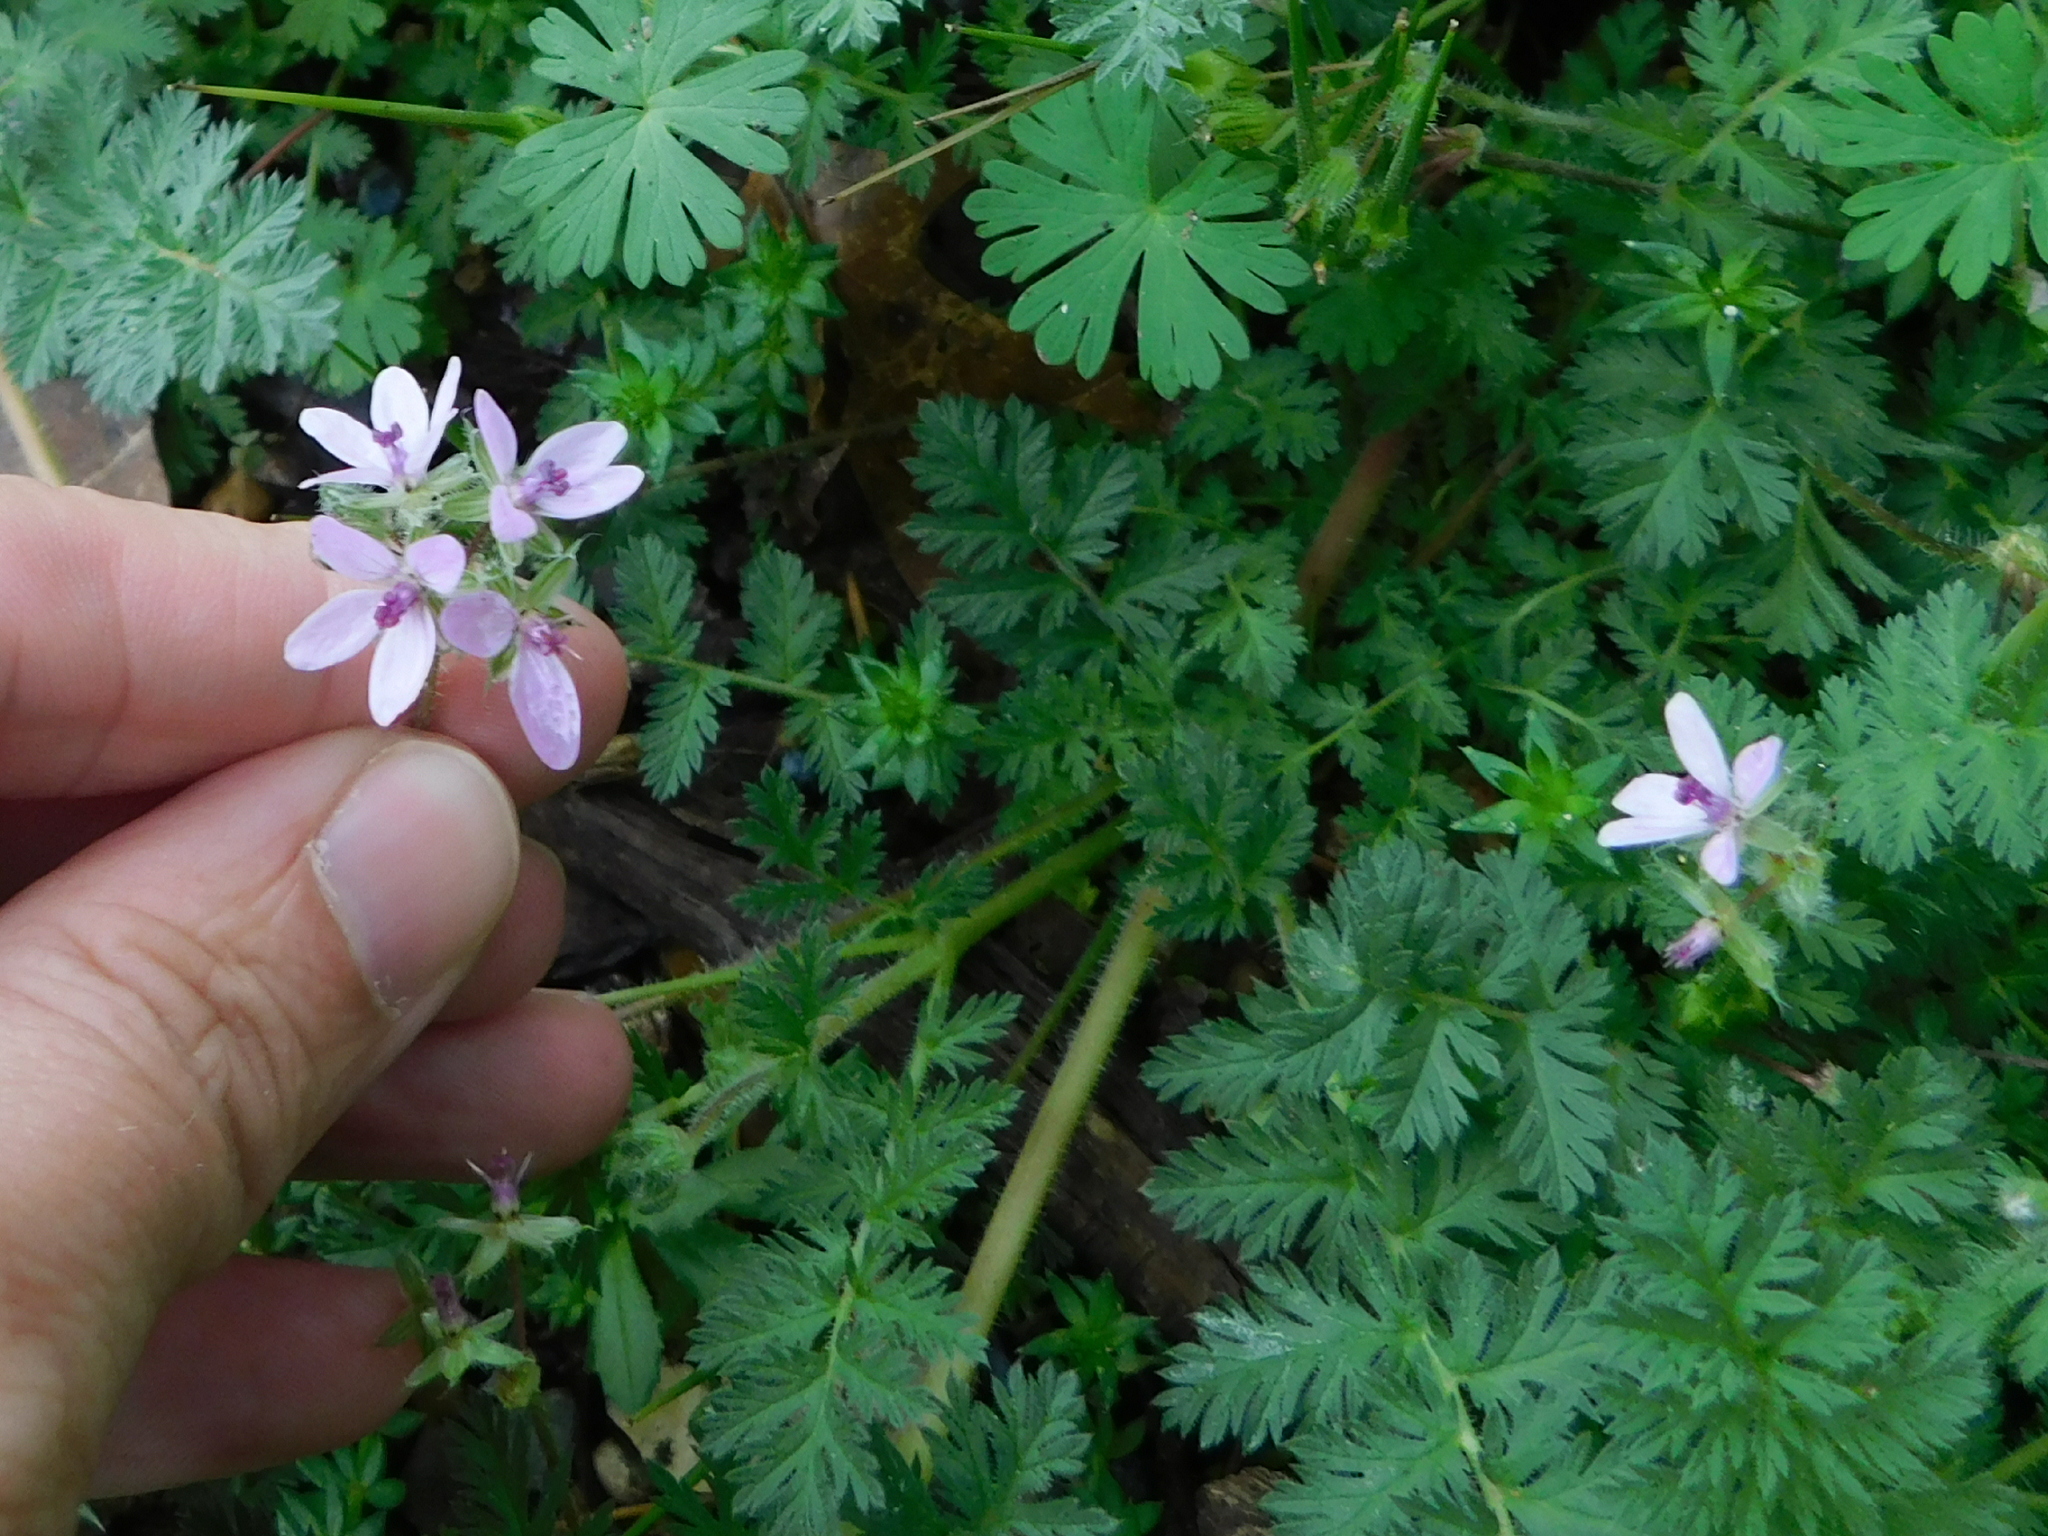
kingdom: Plantae
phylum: Tracheophyta
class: Magnoliopsida
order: Geraniales
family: Geraniaceae
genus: Erodium
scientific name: Erodium cicutarium
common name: Common stork's-bill
